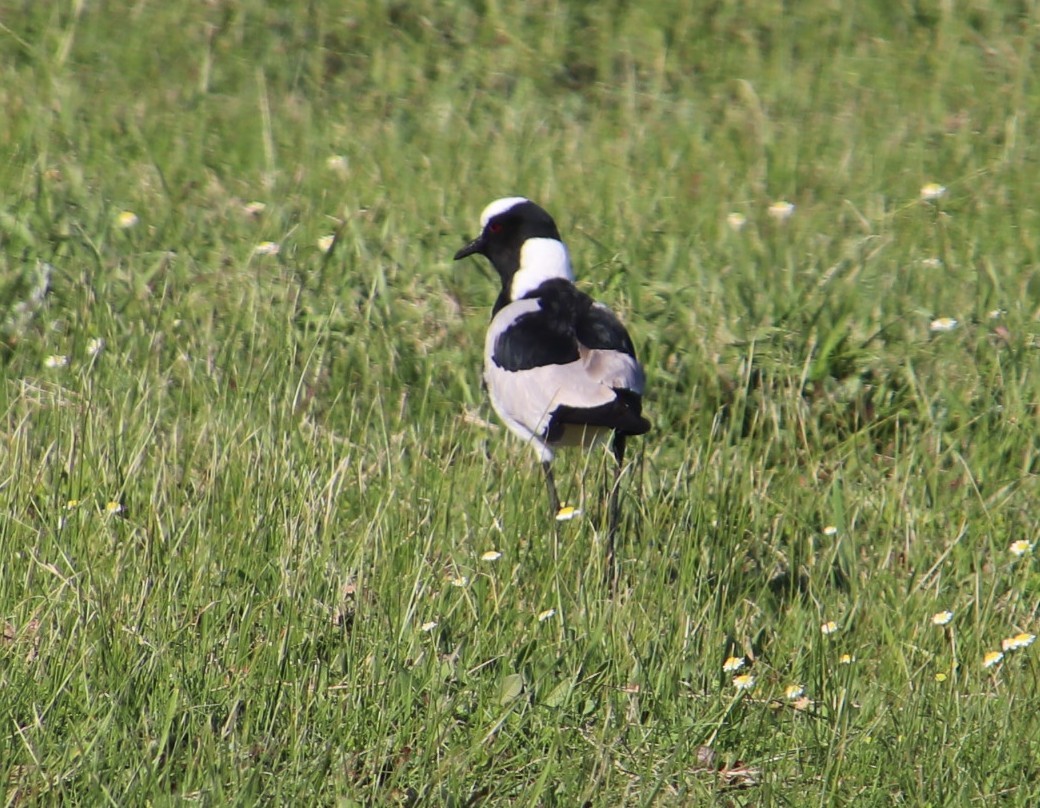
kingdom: Animalia
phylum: Chordata
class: Aves
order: Charadriiformes
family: Charadriidae
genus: Vanellus
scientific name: Vanellus armatus
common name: Blacksmith lapwing
